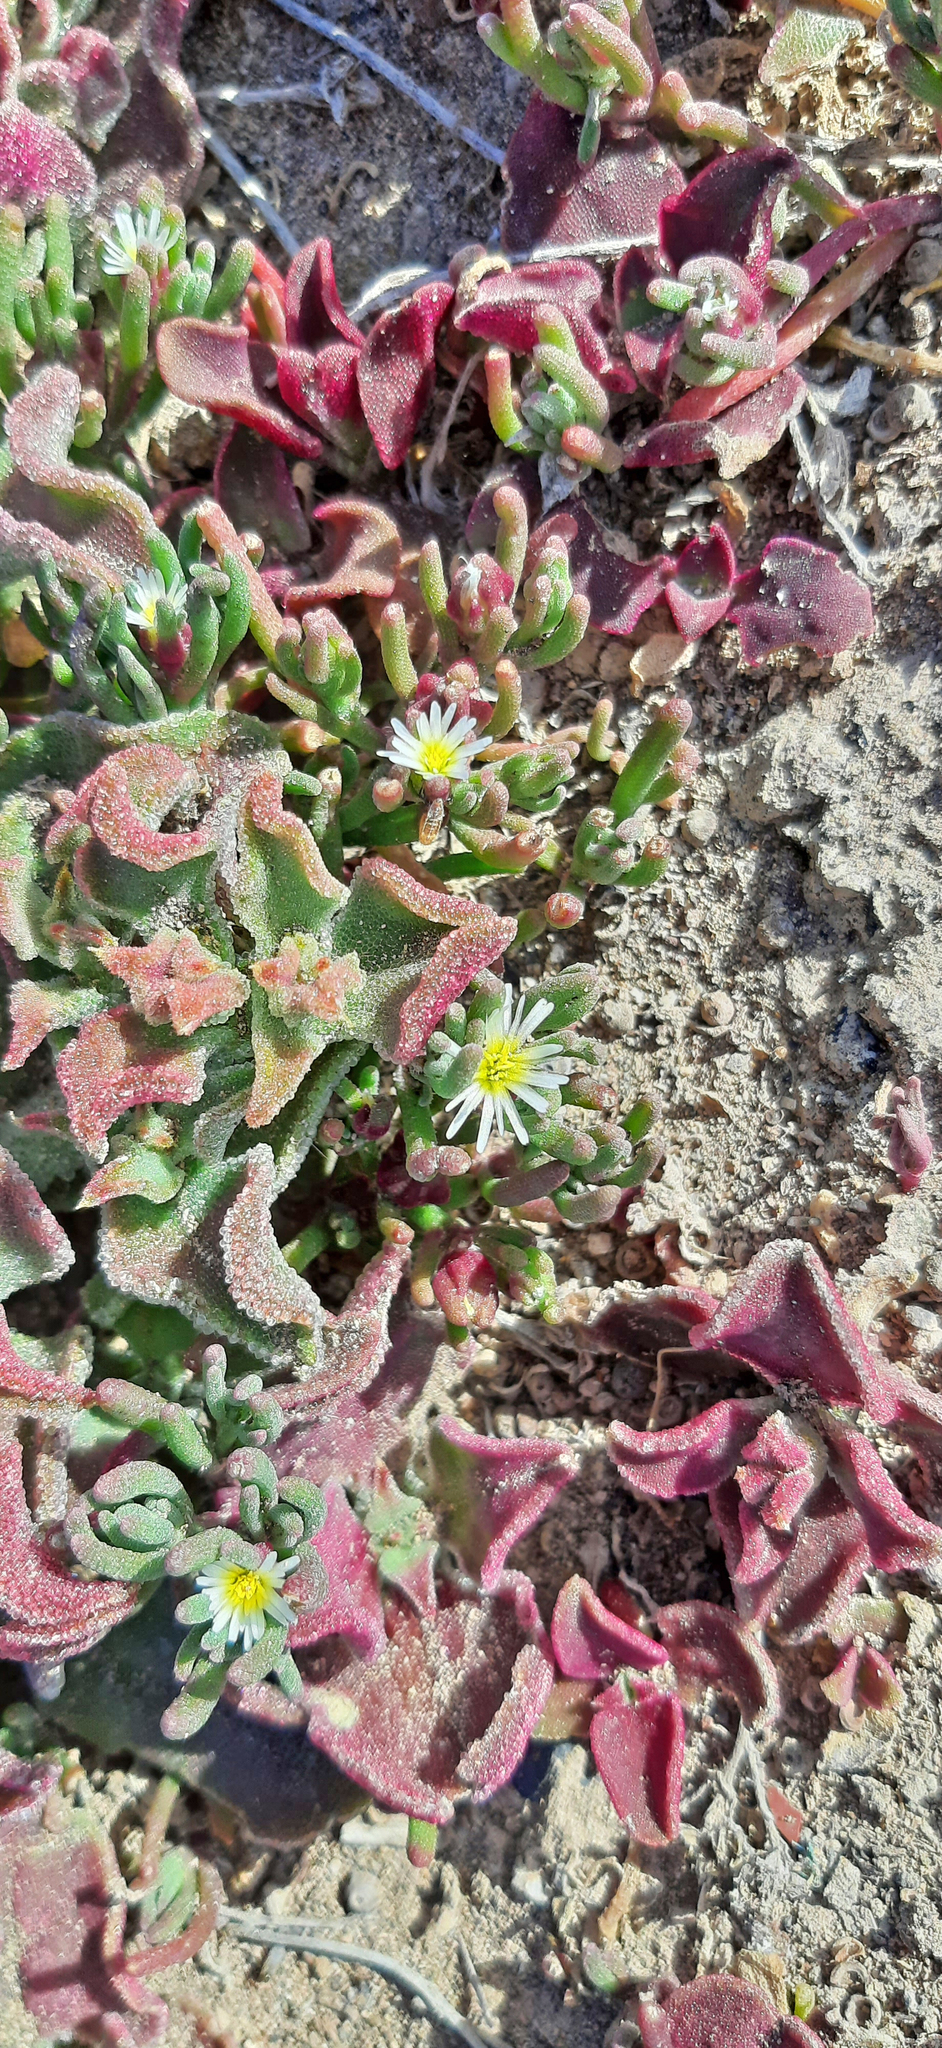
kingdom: Plantae
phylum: Tracheophyta
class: Magnoliopsida
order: Caryophyllales
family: Aizoaceae
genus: Mesembryanthemum
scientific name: Mesembryanthemum crystallinum
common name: Common iceplant
